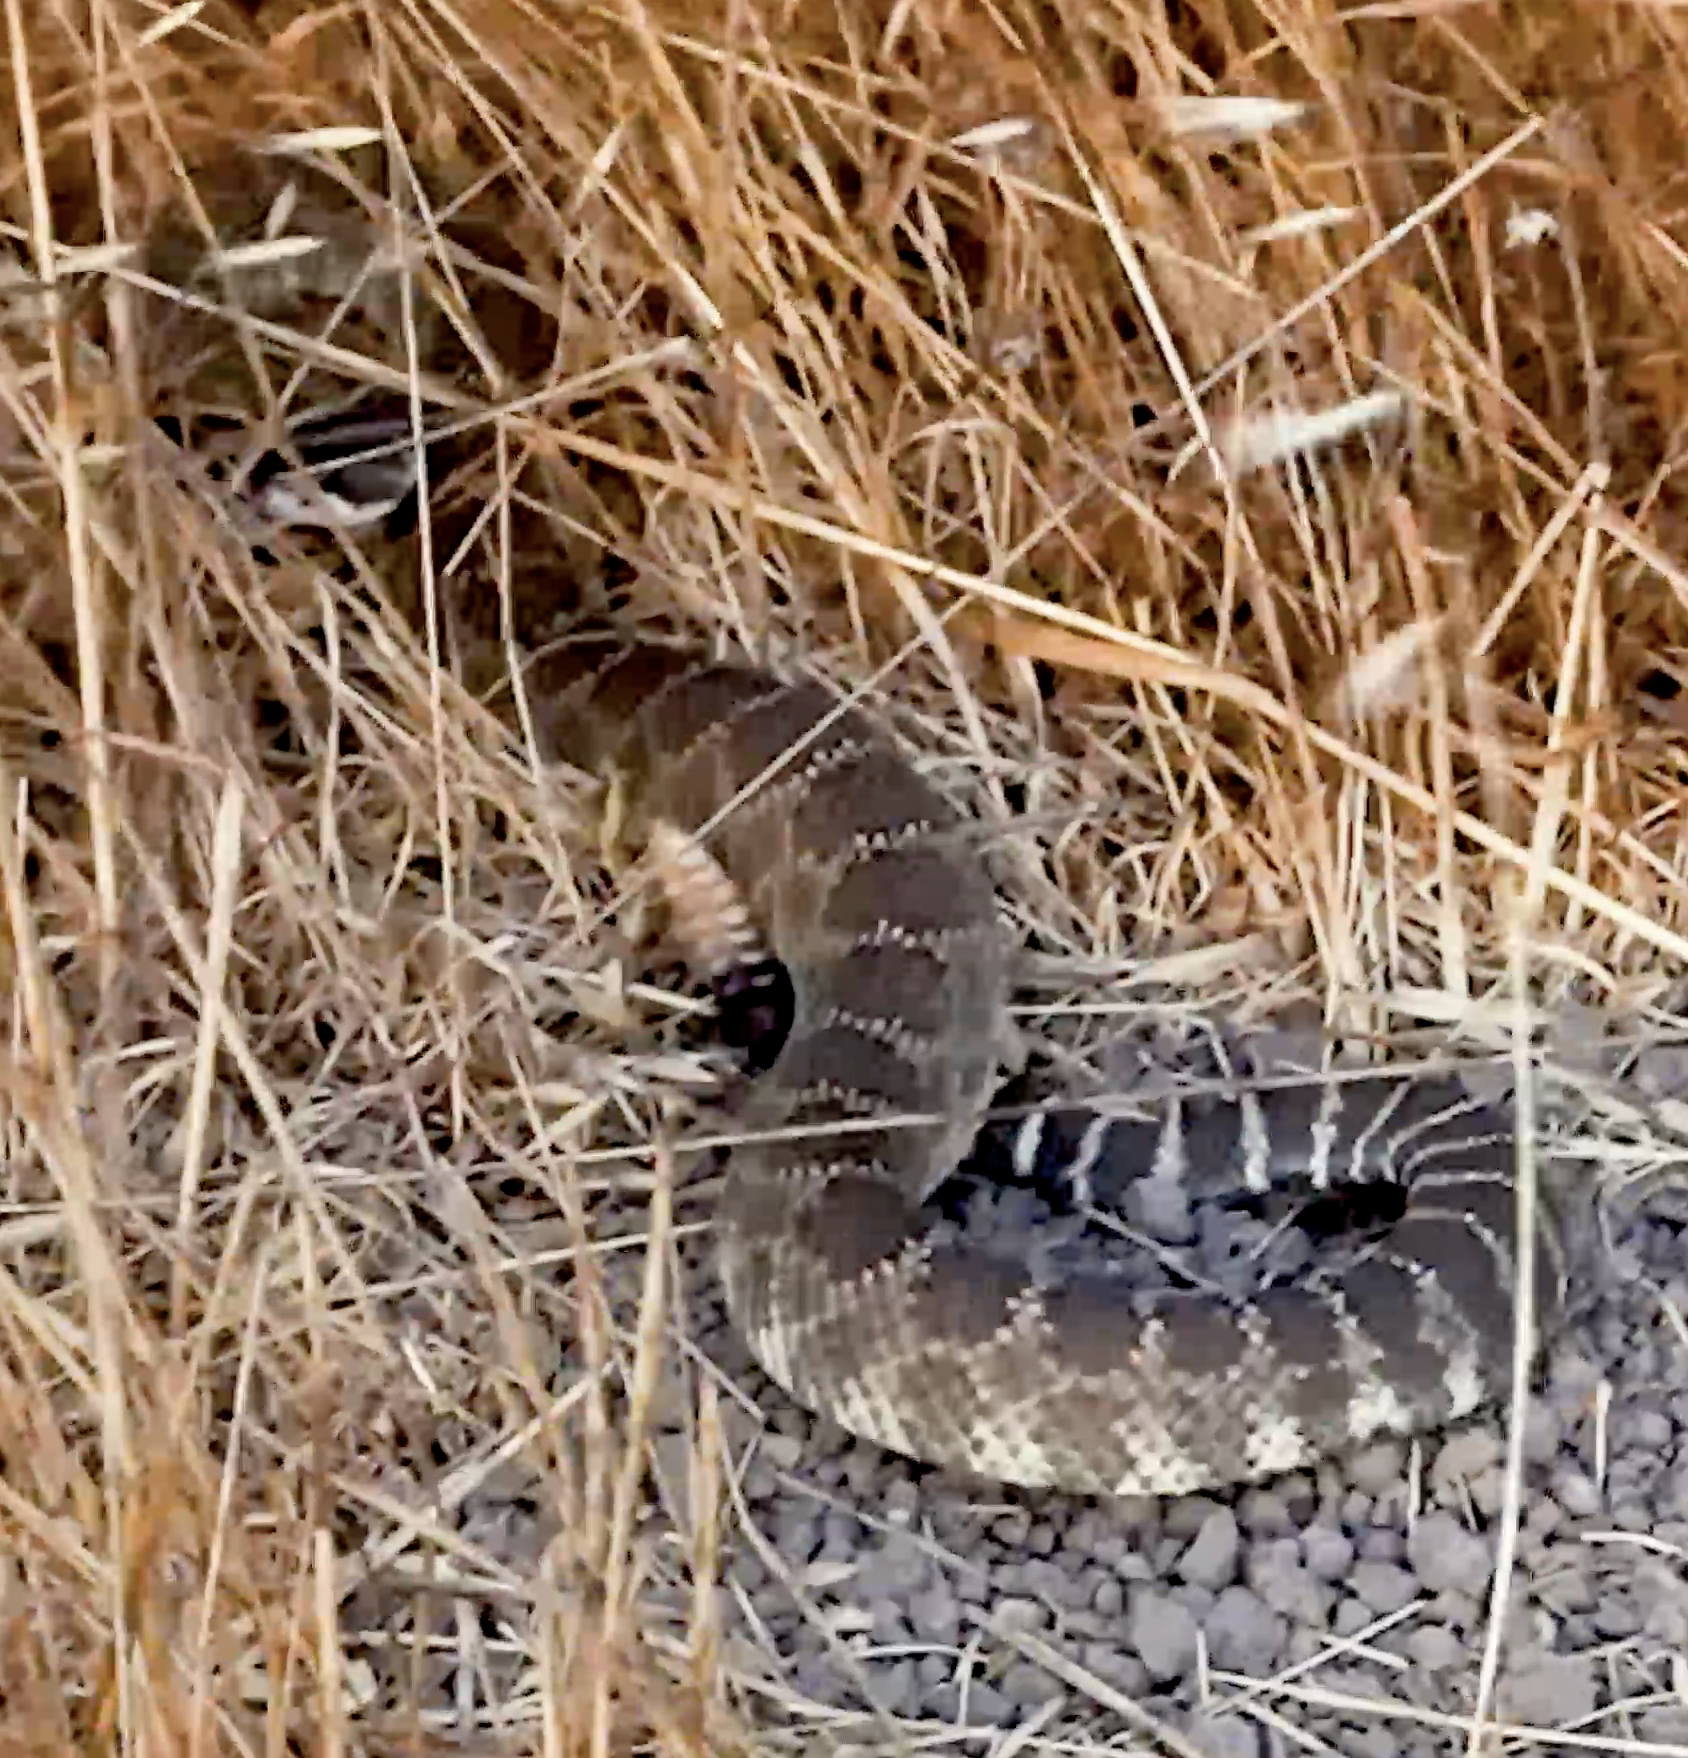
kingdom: Animalia
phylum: Chordata
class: Squamata
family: Viperidae
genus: Crotalus
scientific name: Crotalus oreganus
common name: Abyssus
